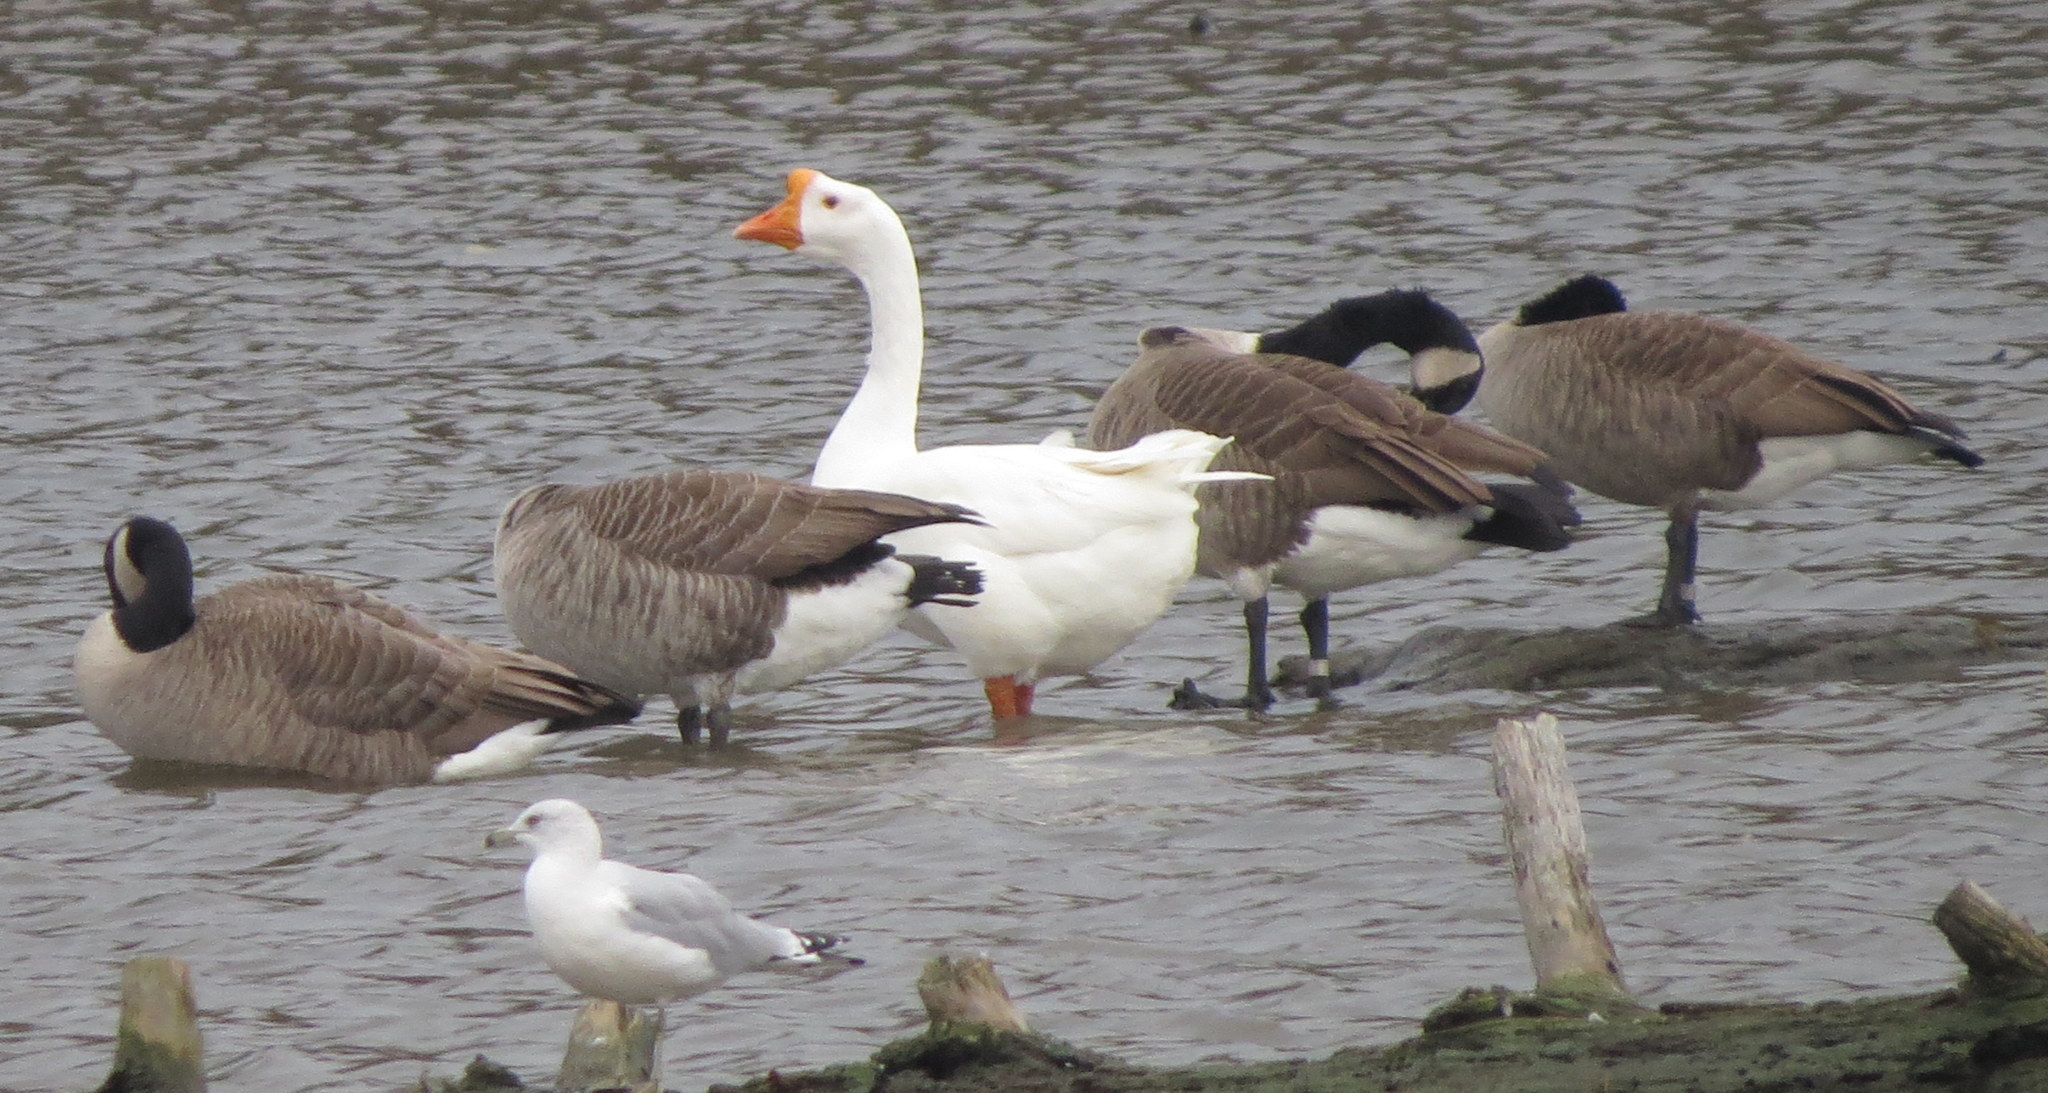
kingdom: Animalia
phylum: Chordata
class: Aves
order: Anseriformes
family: Anatidae
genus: Anser
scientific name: Anser cygnoides
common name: Swan goose
